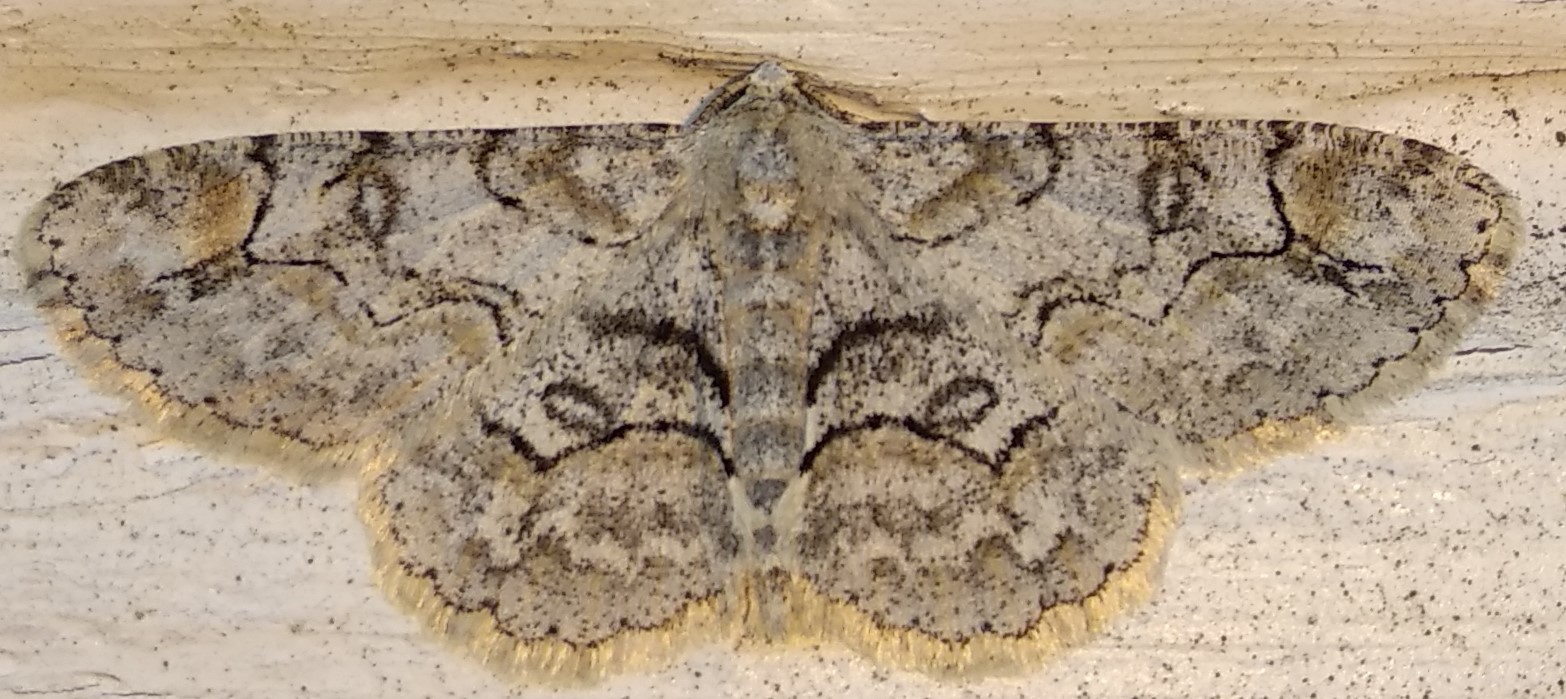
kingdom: Animalia
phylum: Arthropoda
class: Insecta
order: Lepidoptera
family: Geometridae
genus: Iridopsis
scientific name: Iridopsis larvaria
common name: Bent-line gray
